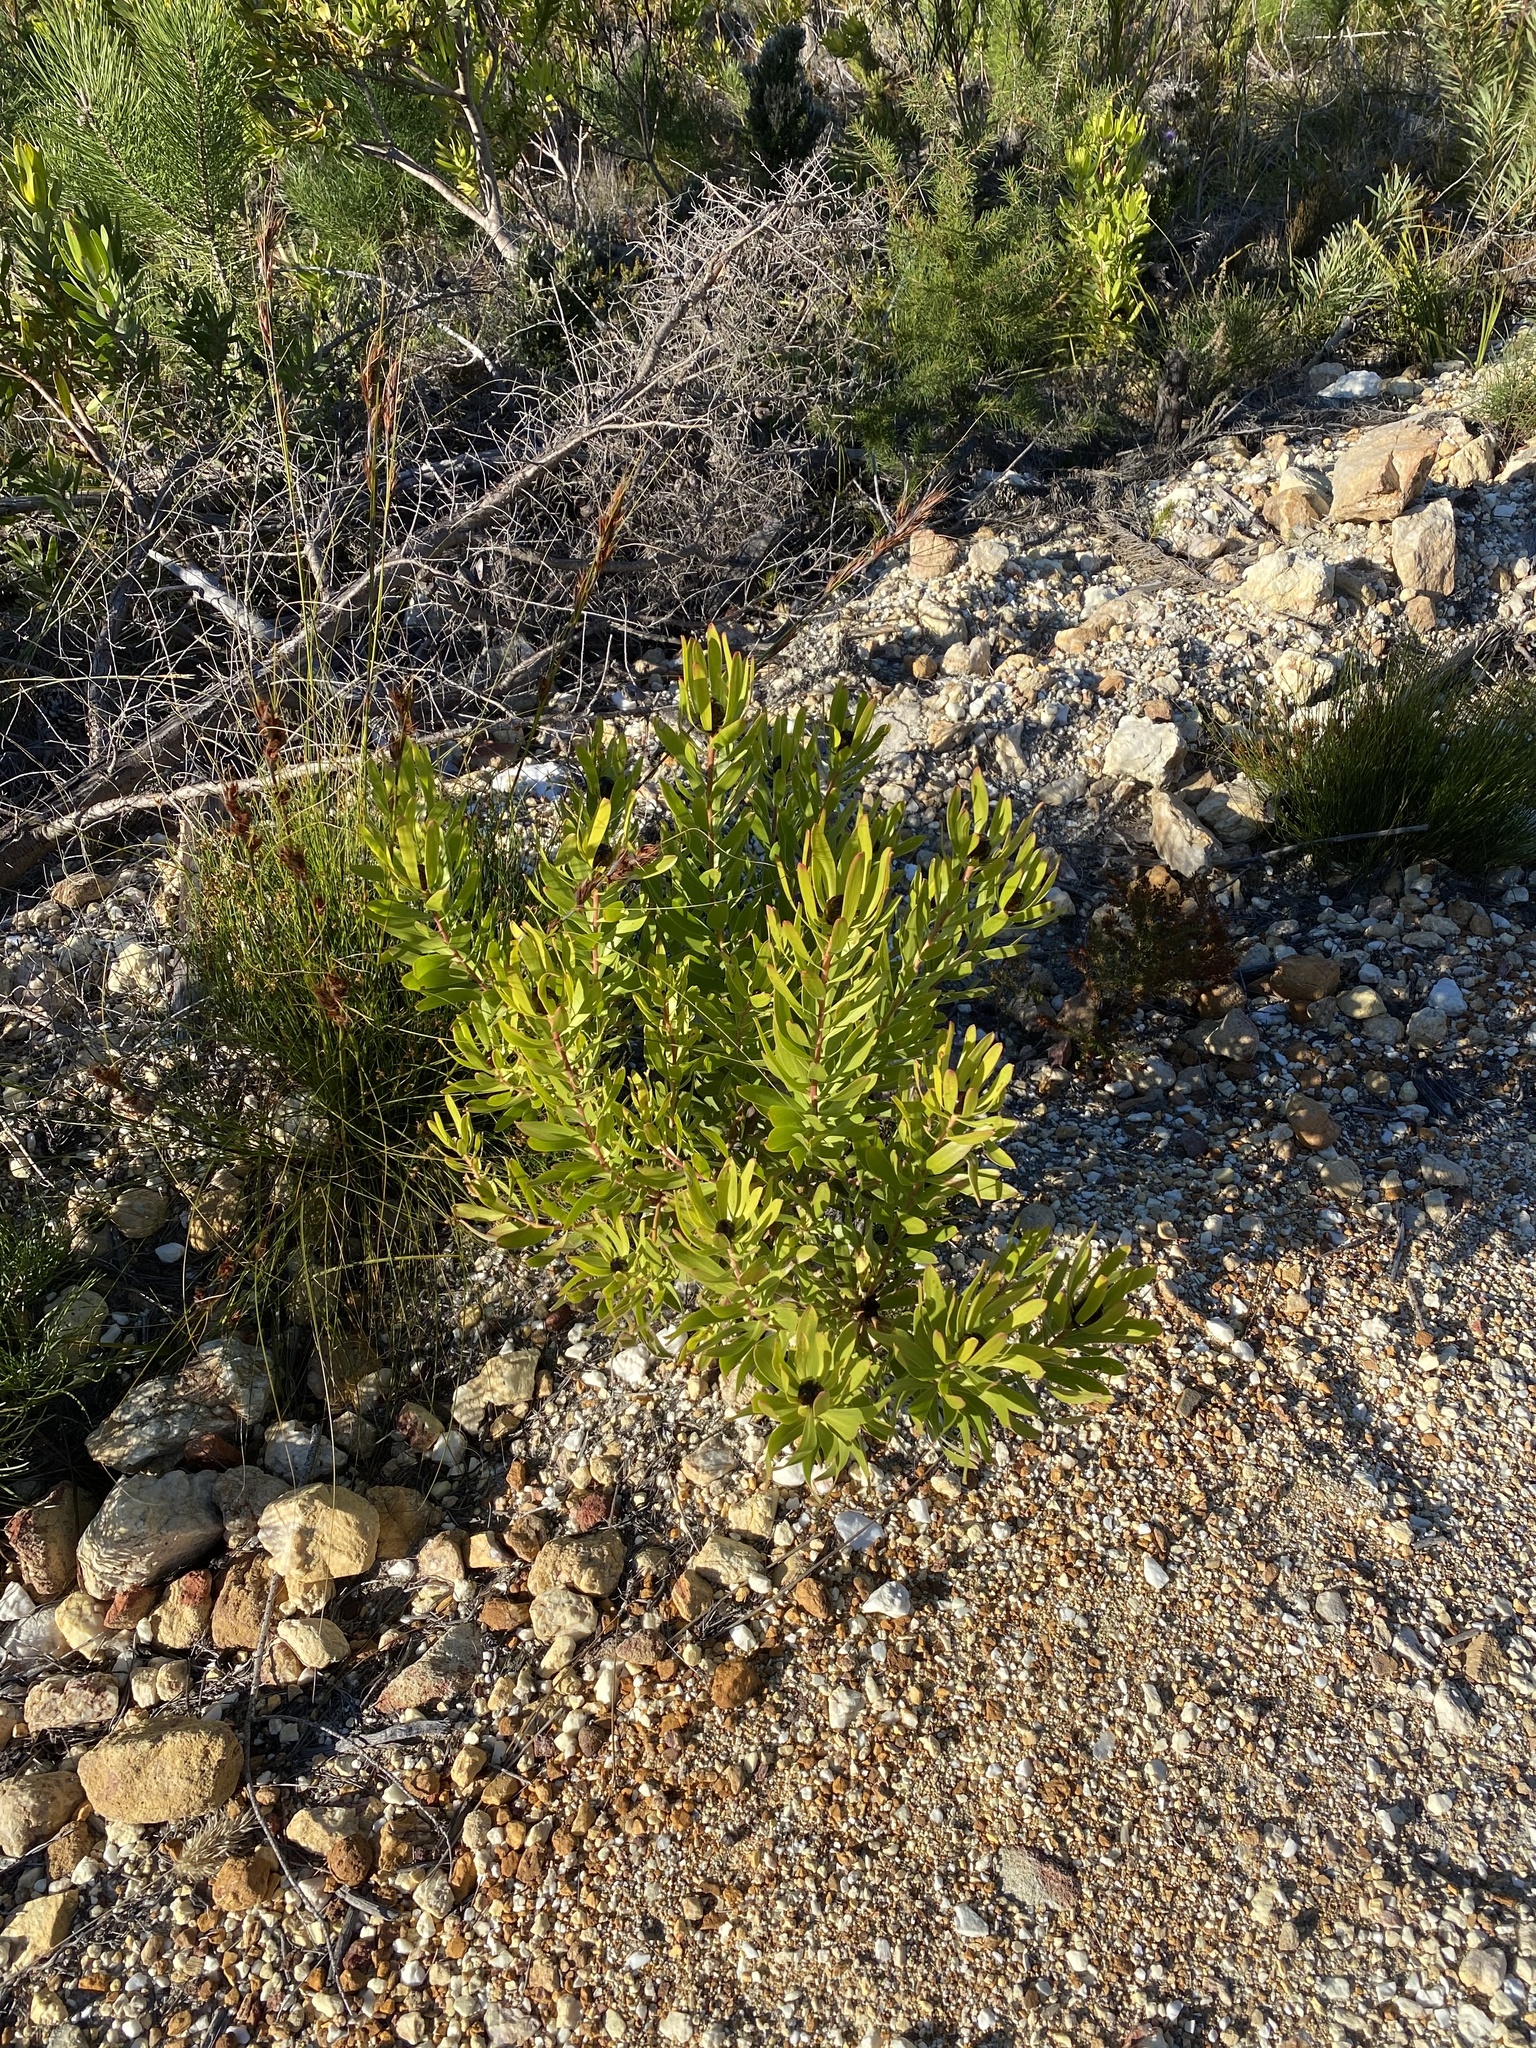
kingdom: Plantae
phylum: Tracheophyta
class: Magnoliopsida
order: Proteales
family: Proteaceae
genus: Leucadendron
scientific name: Leucadendron microcephalum
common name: Oilbract conebush
